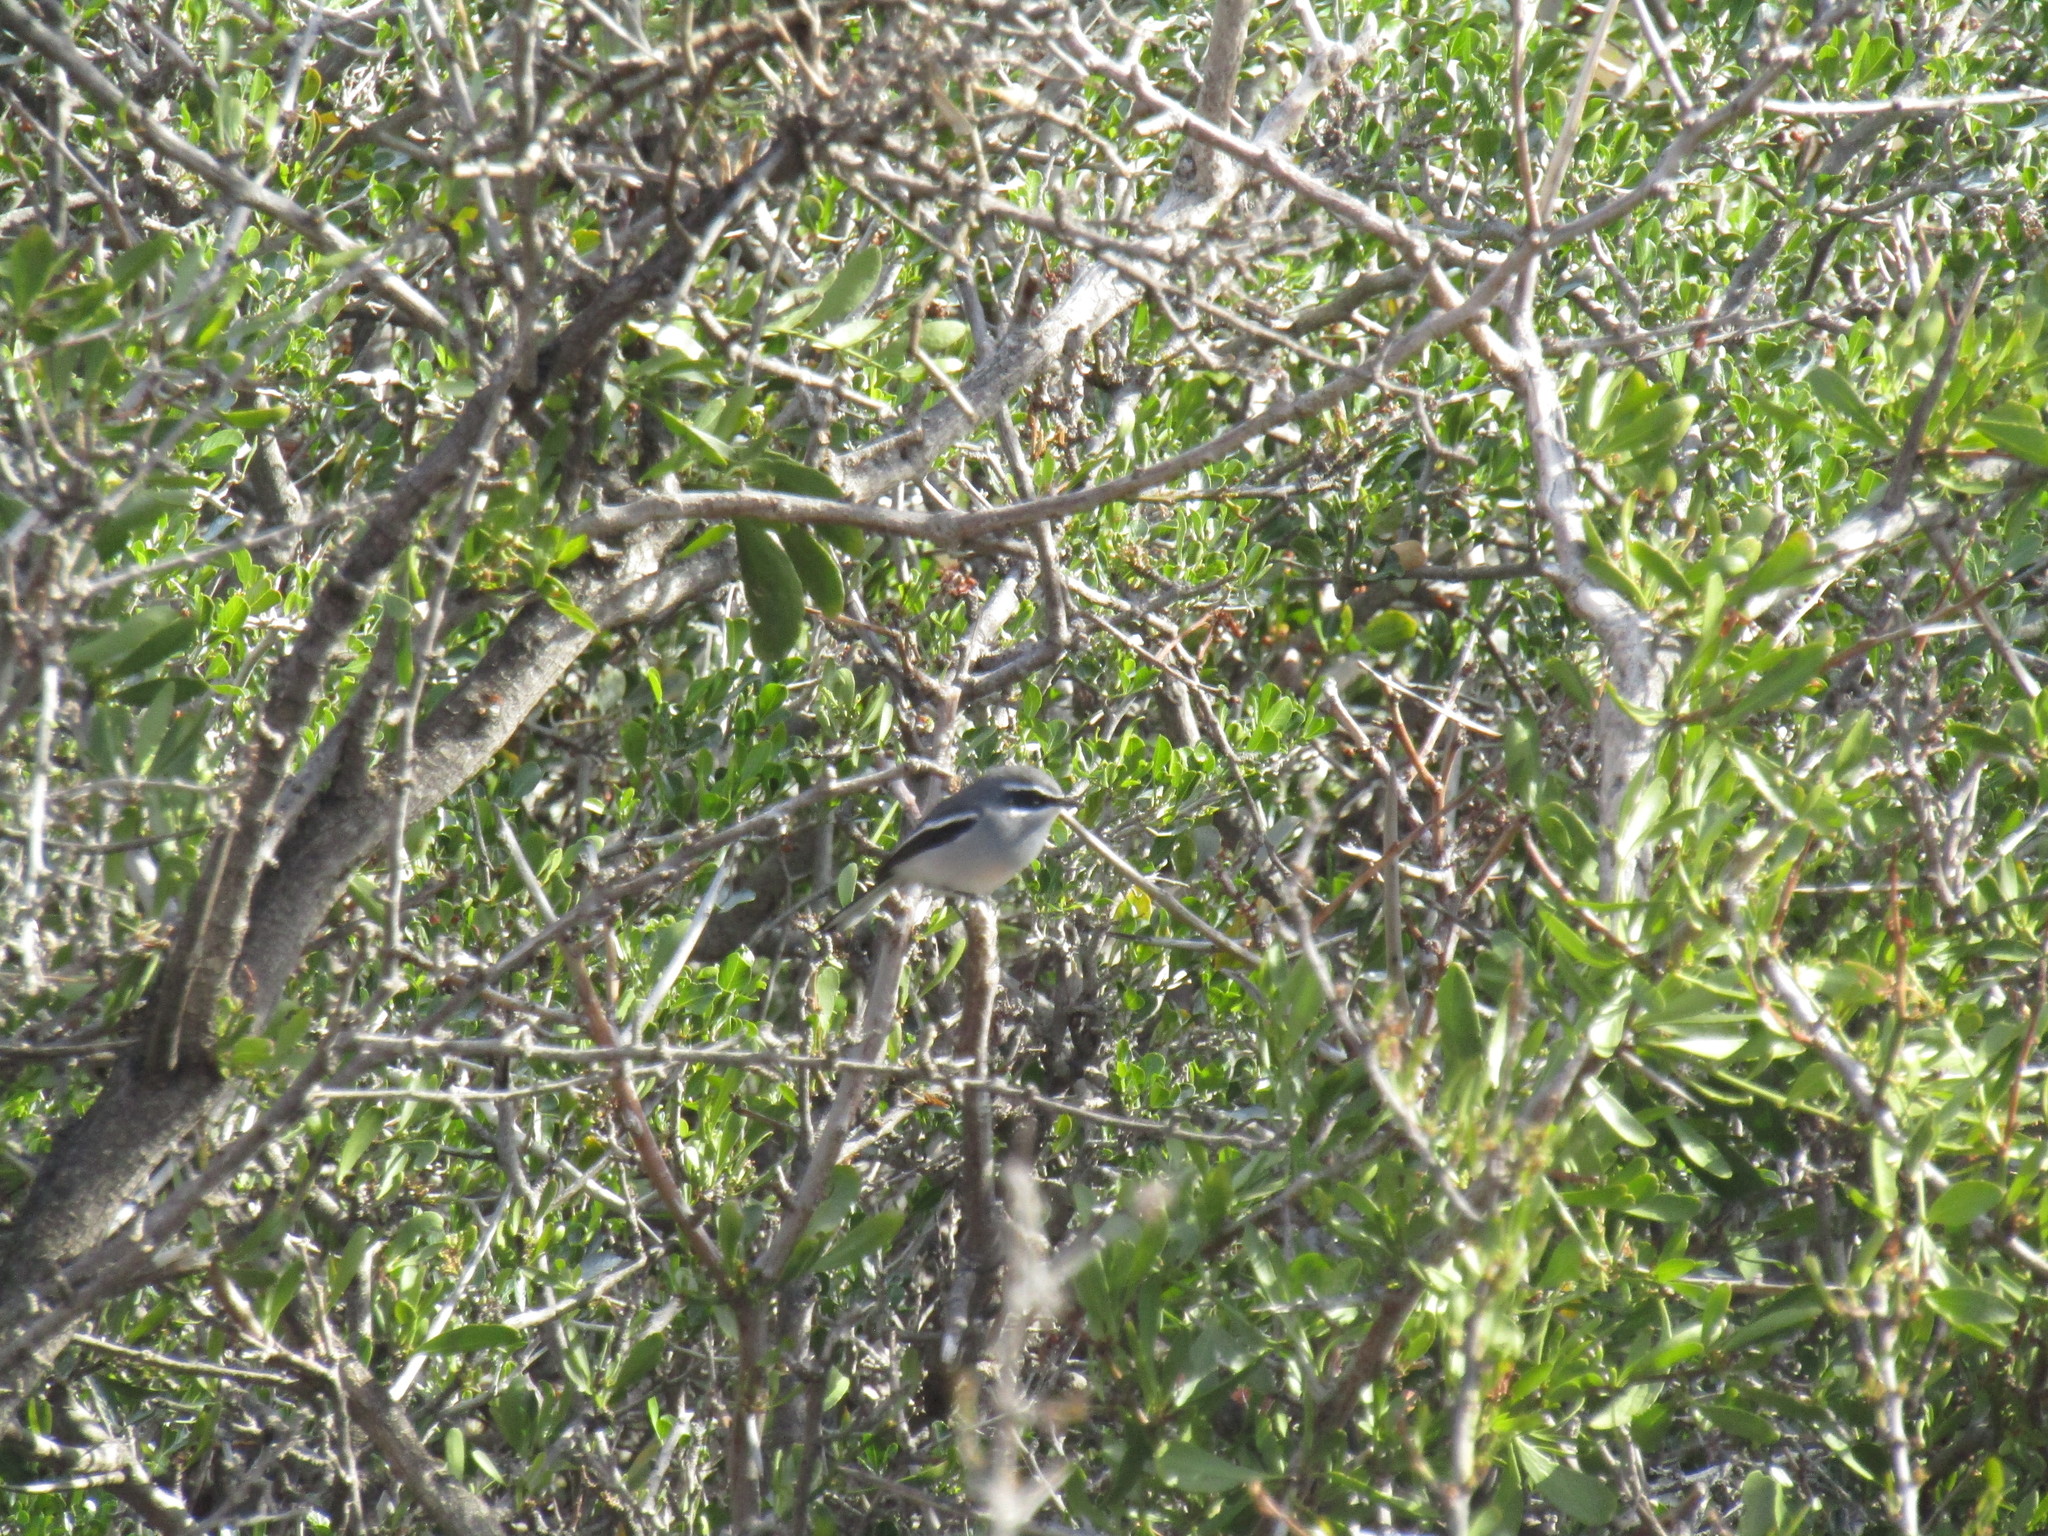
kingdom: Animalia
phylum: Chordata
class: Aves
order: Passeriformes
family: Stenostiridae
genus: Stenostira
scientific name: Stenostira scita
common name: Fairy flycatcher
